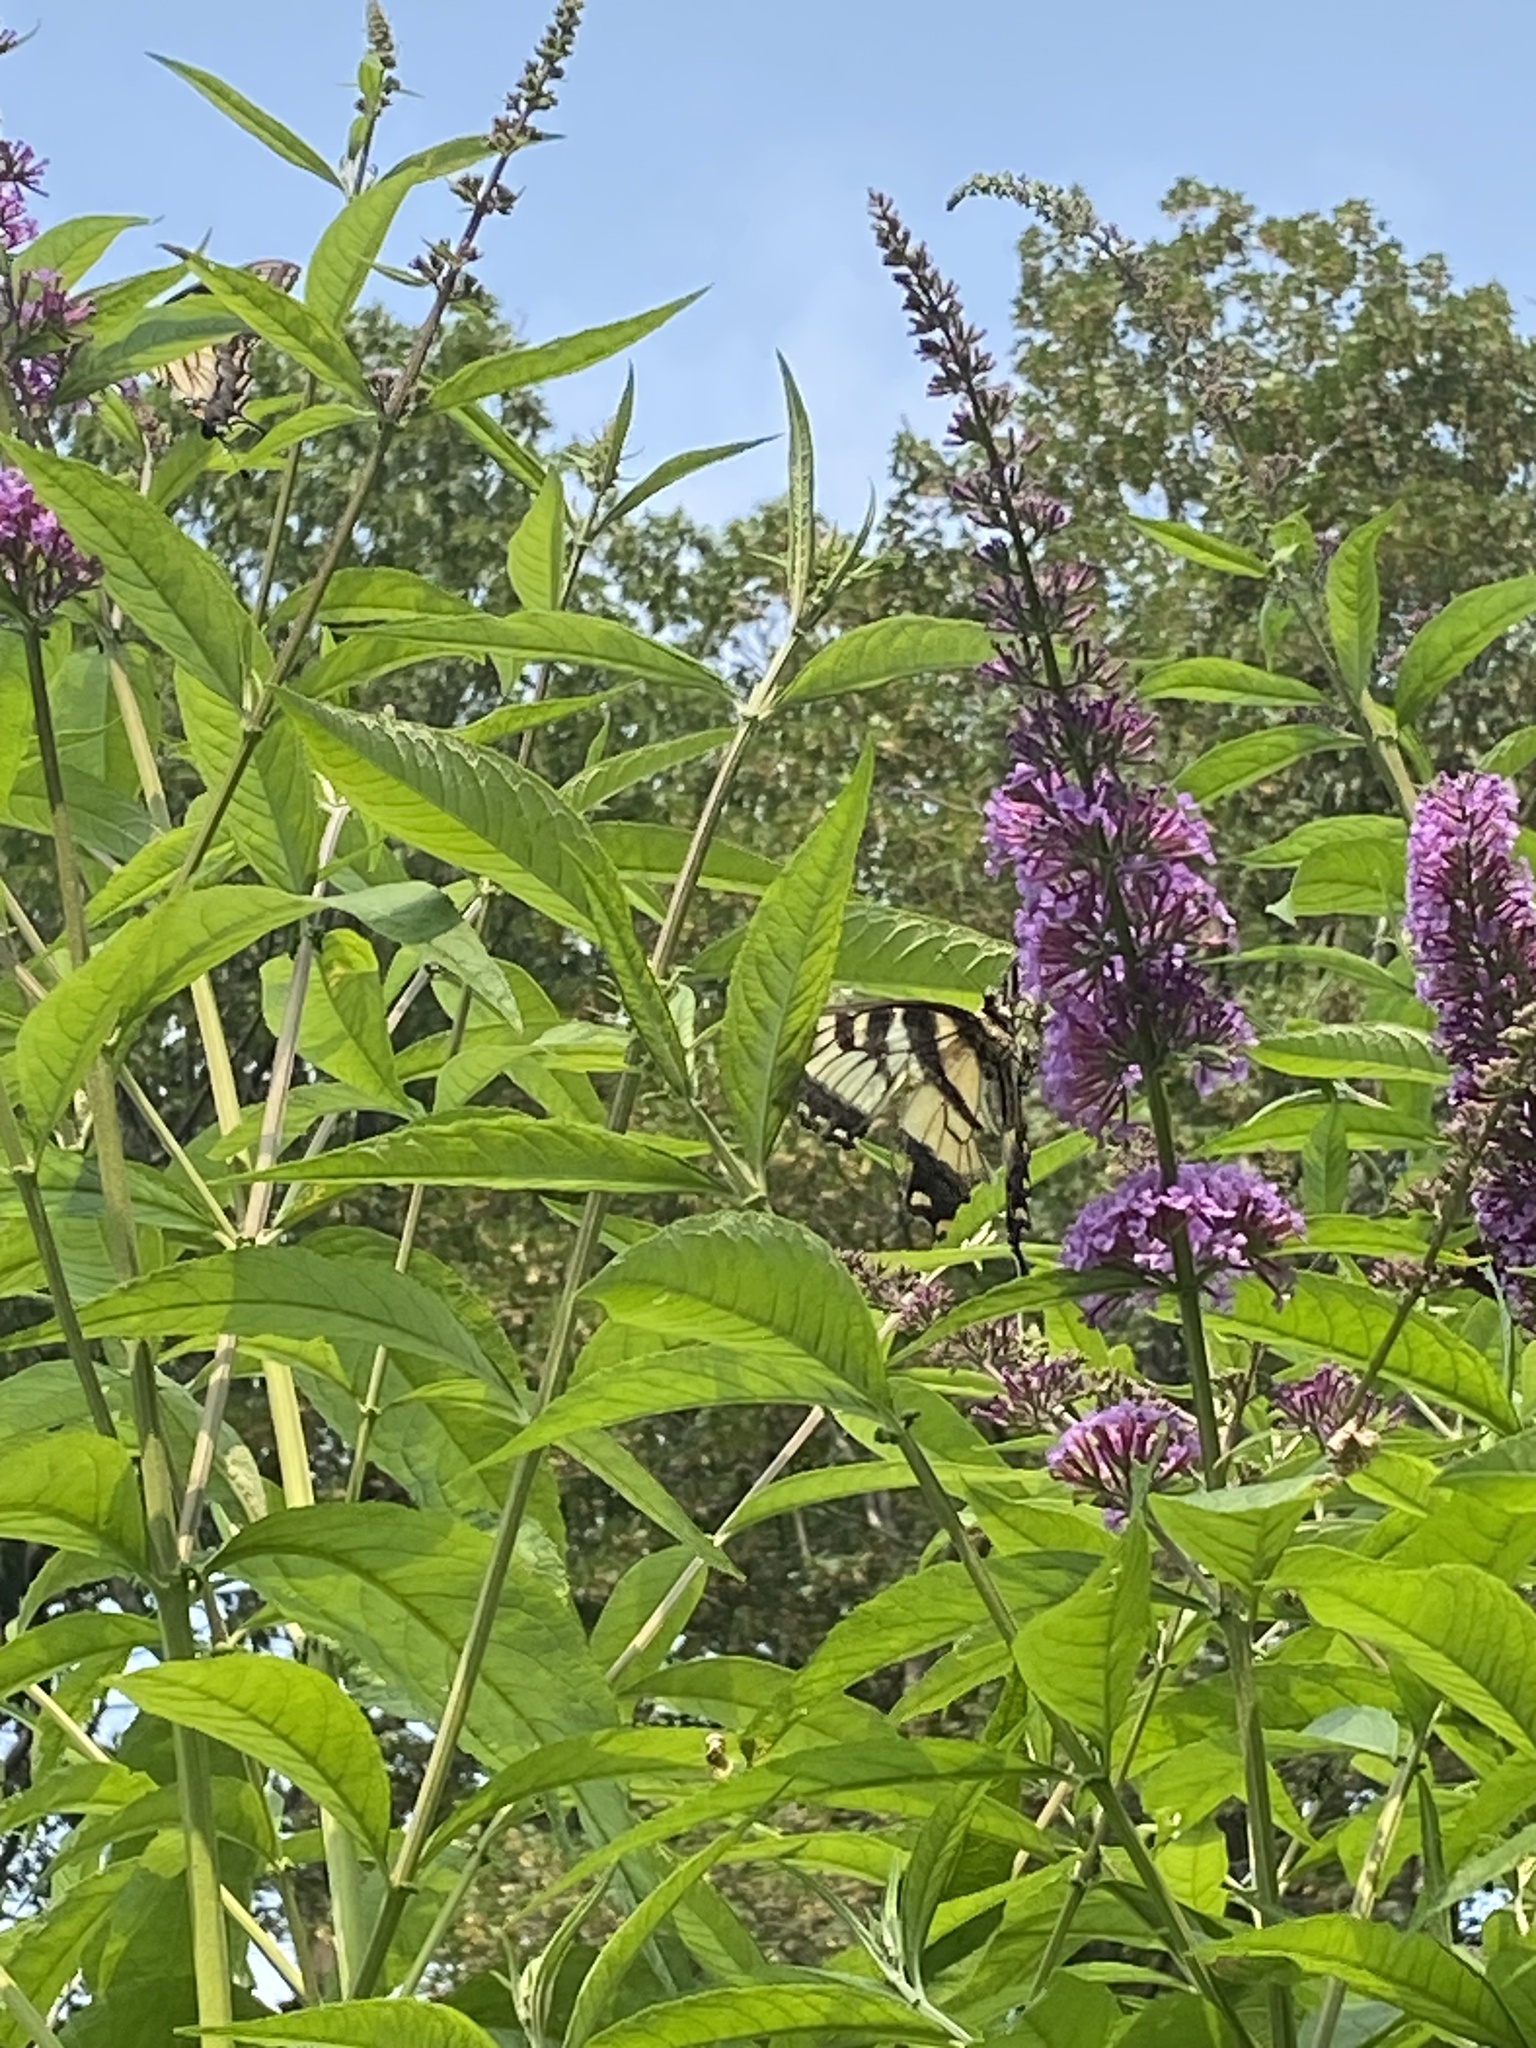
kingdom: Animalia
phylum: Arthropoda
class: Insecta
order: Lepidoptera
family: Papilionidae
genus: Papilio
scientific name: Papilio glaucus
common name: Tiger swallowtail
